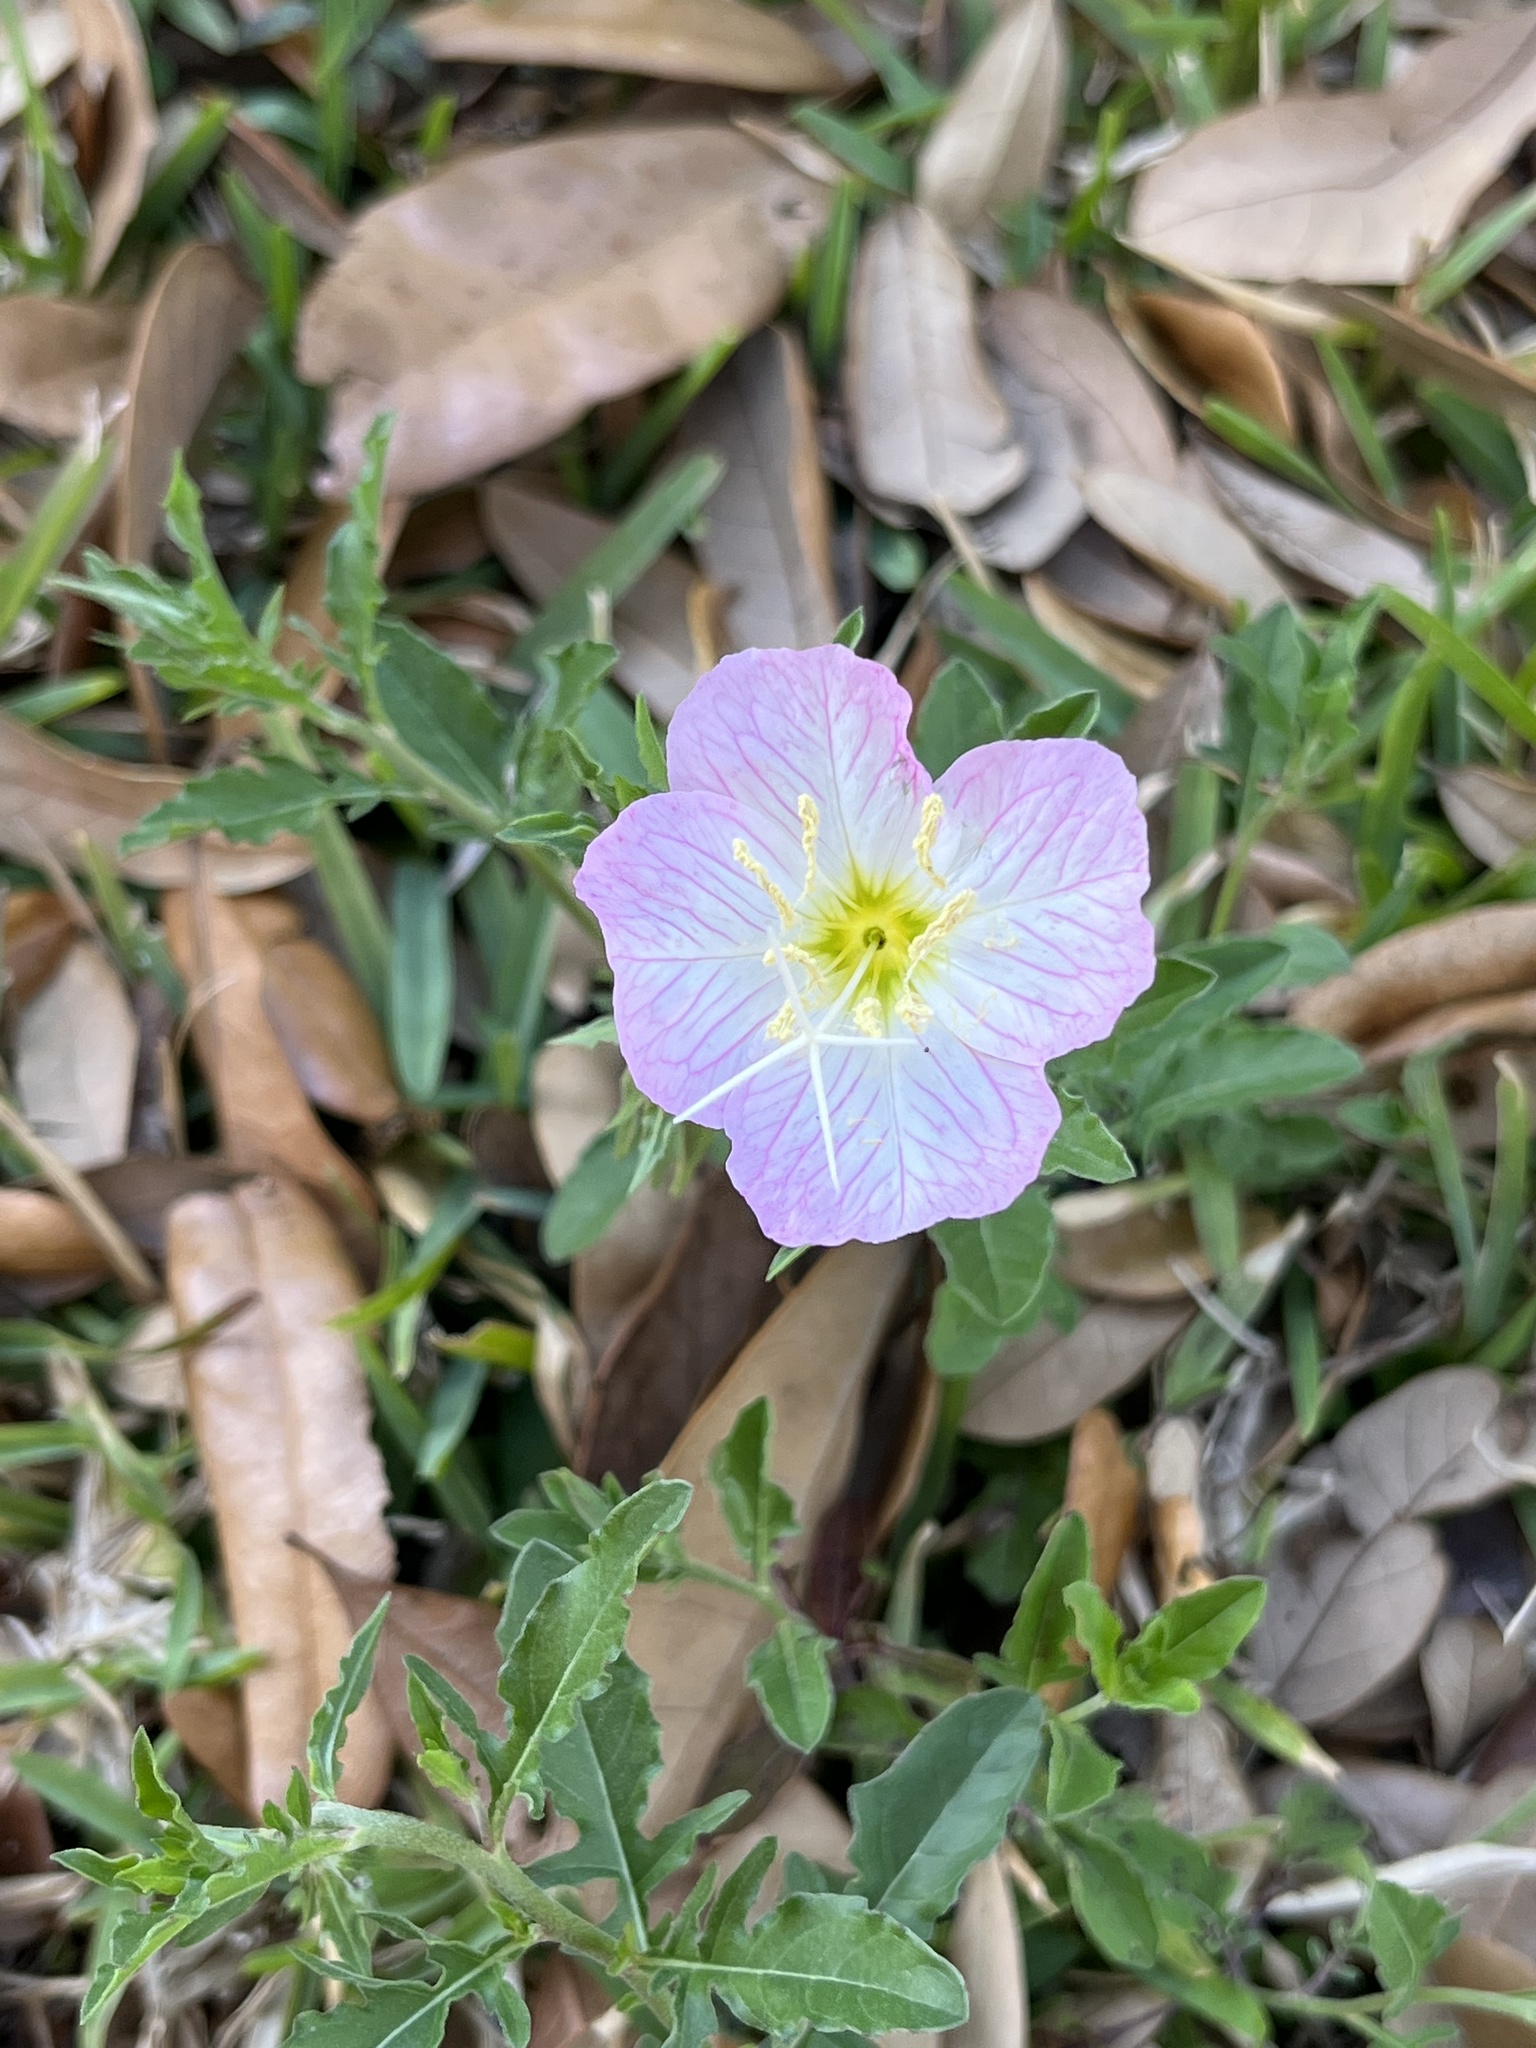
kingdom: Plantae
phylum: Tracheophyta
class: Magnoliopsida
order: Myrtales
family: Onagraceae
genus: Oenothera
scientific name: Oenothera speciosa
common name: White evening-primrose
